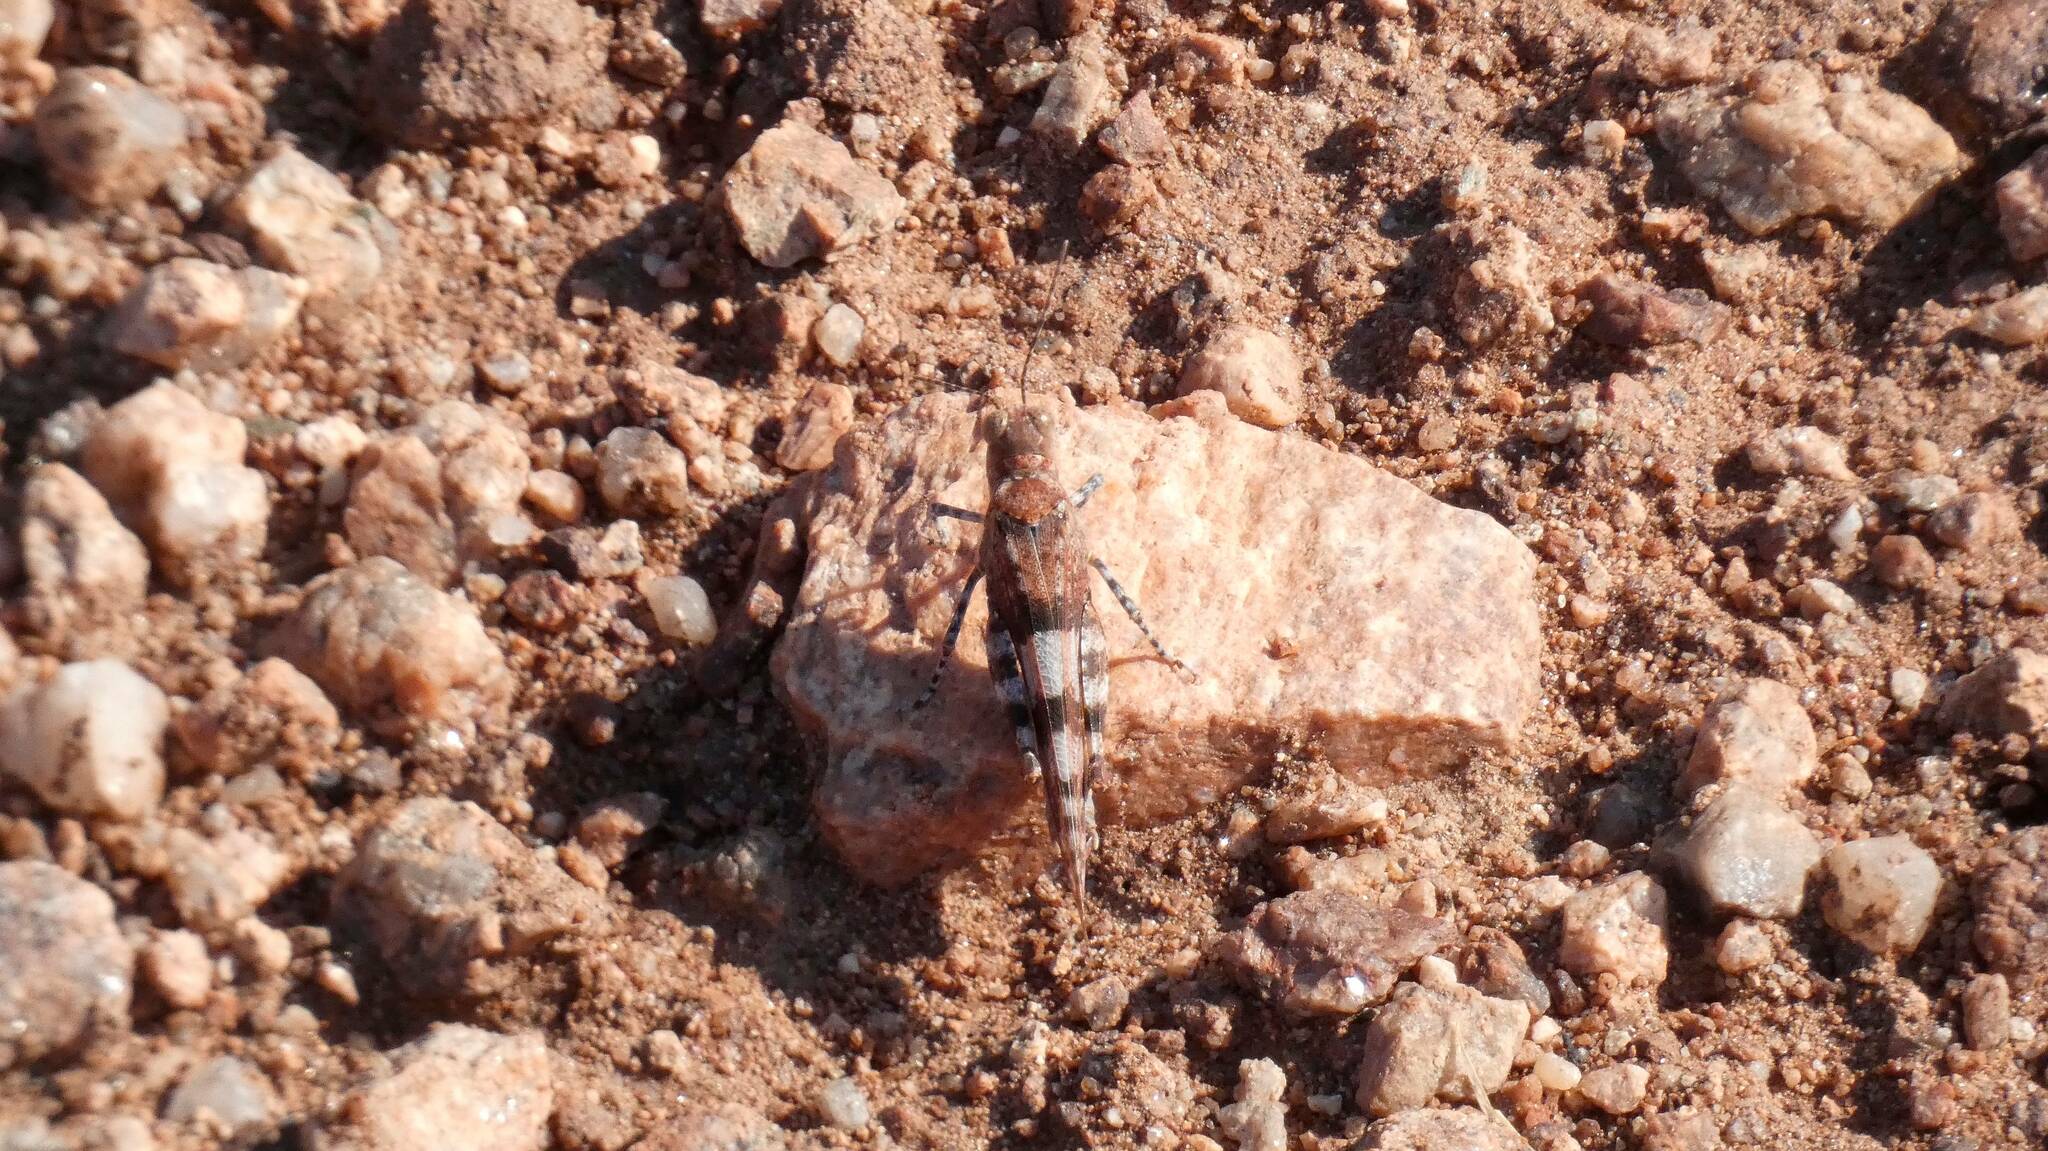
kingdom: Animalia
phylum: Arthropoda
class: Insecta
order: Orthoptera
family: Acrididae
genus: Sphingonotus
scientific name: Sphingonotus caerulans
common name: Blue-winged locust
